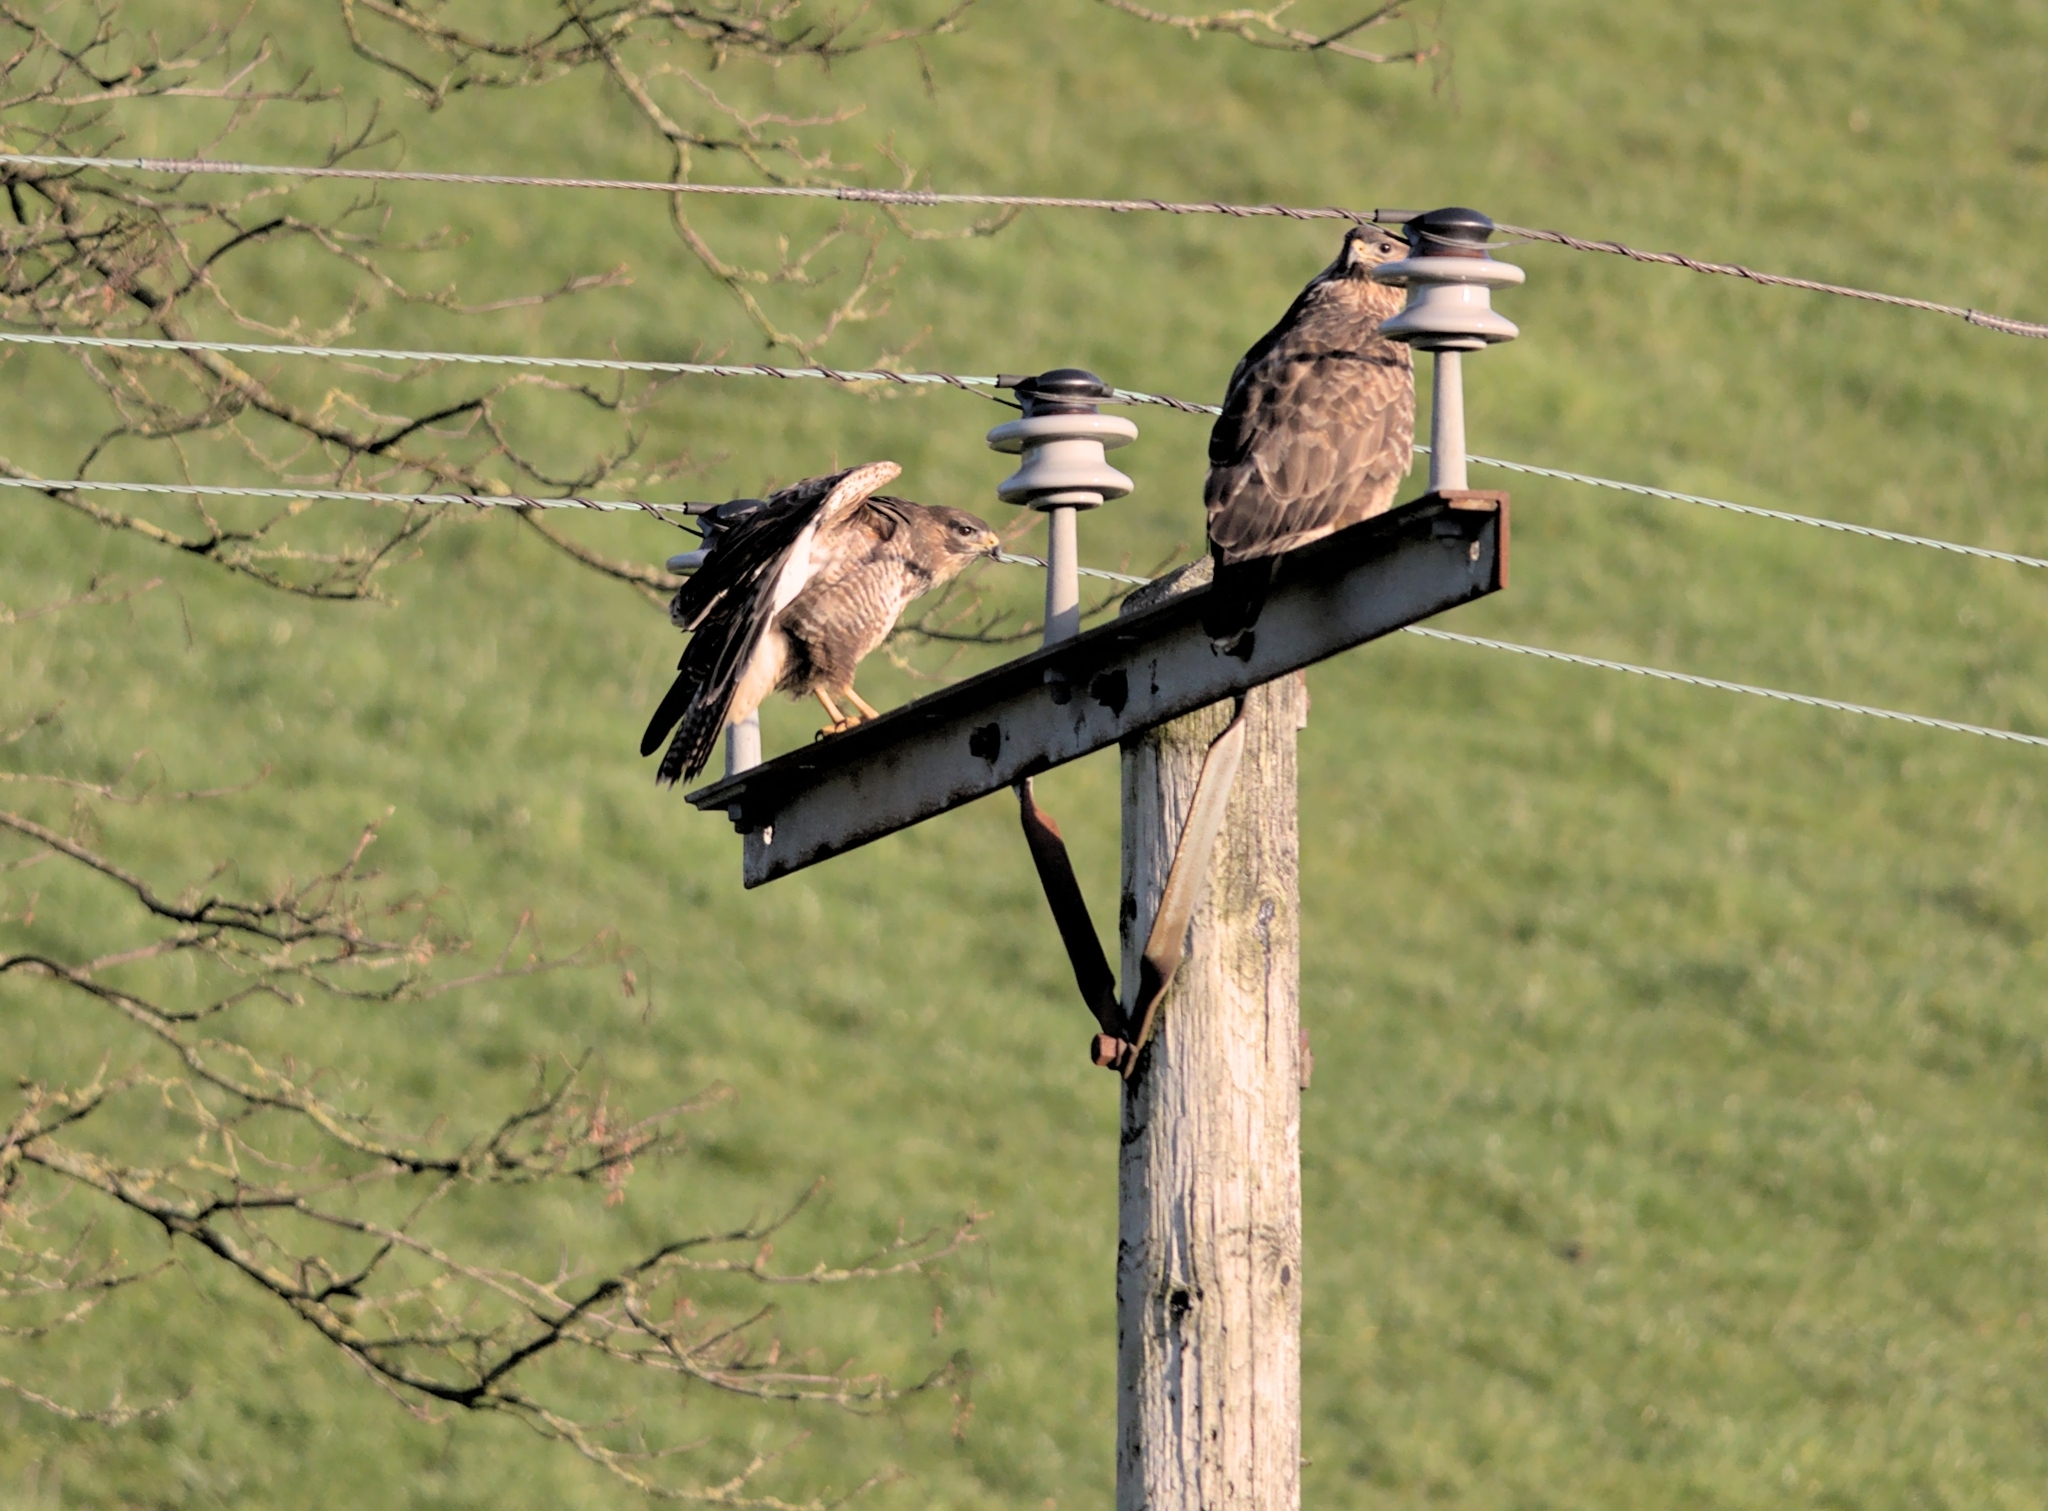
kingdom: Animalia
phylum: Chordata
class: Aves
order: Accipitriformes
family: Accipitridae
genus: Buteo
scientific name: Buteo buteo
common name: Common buzzard
